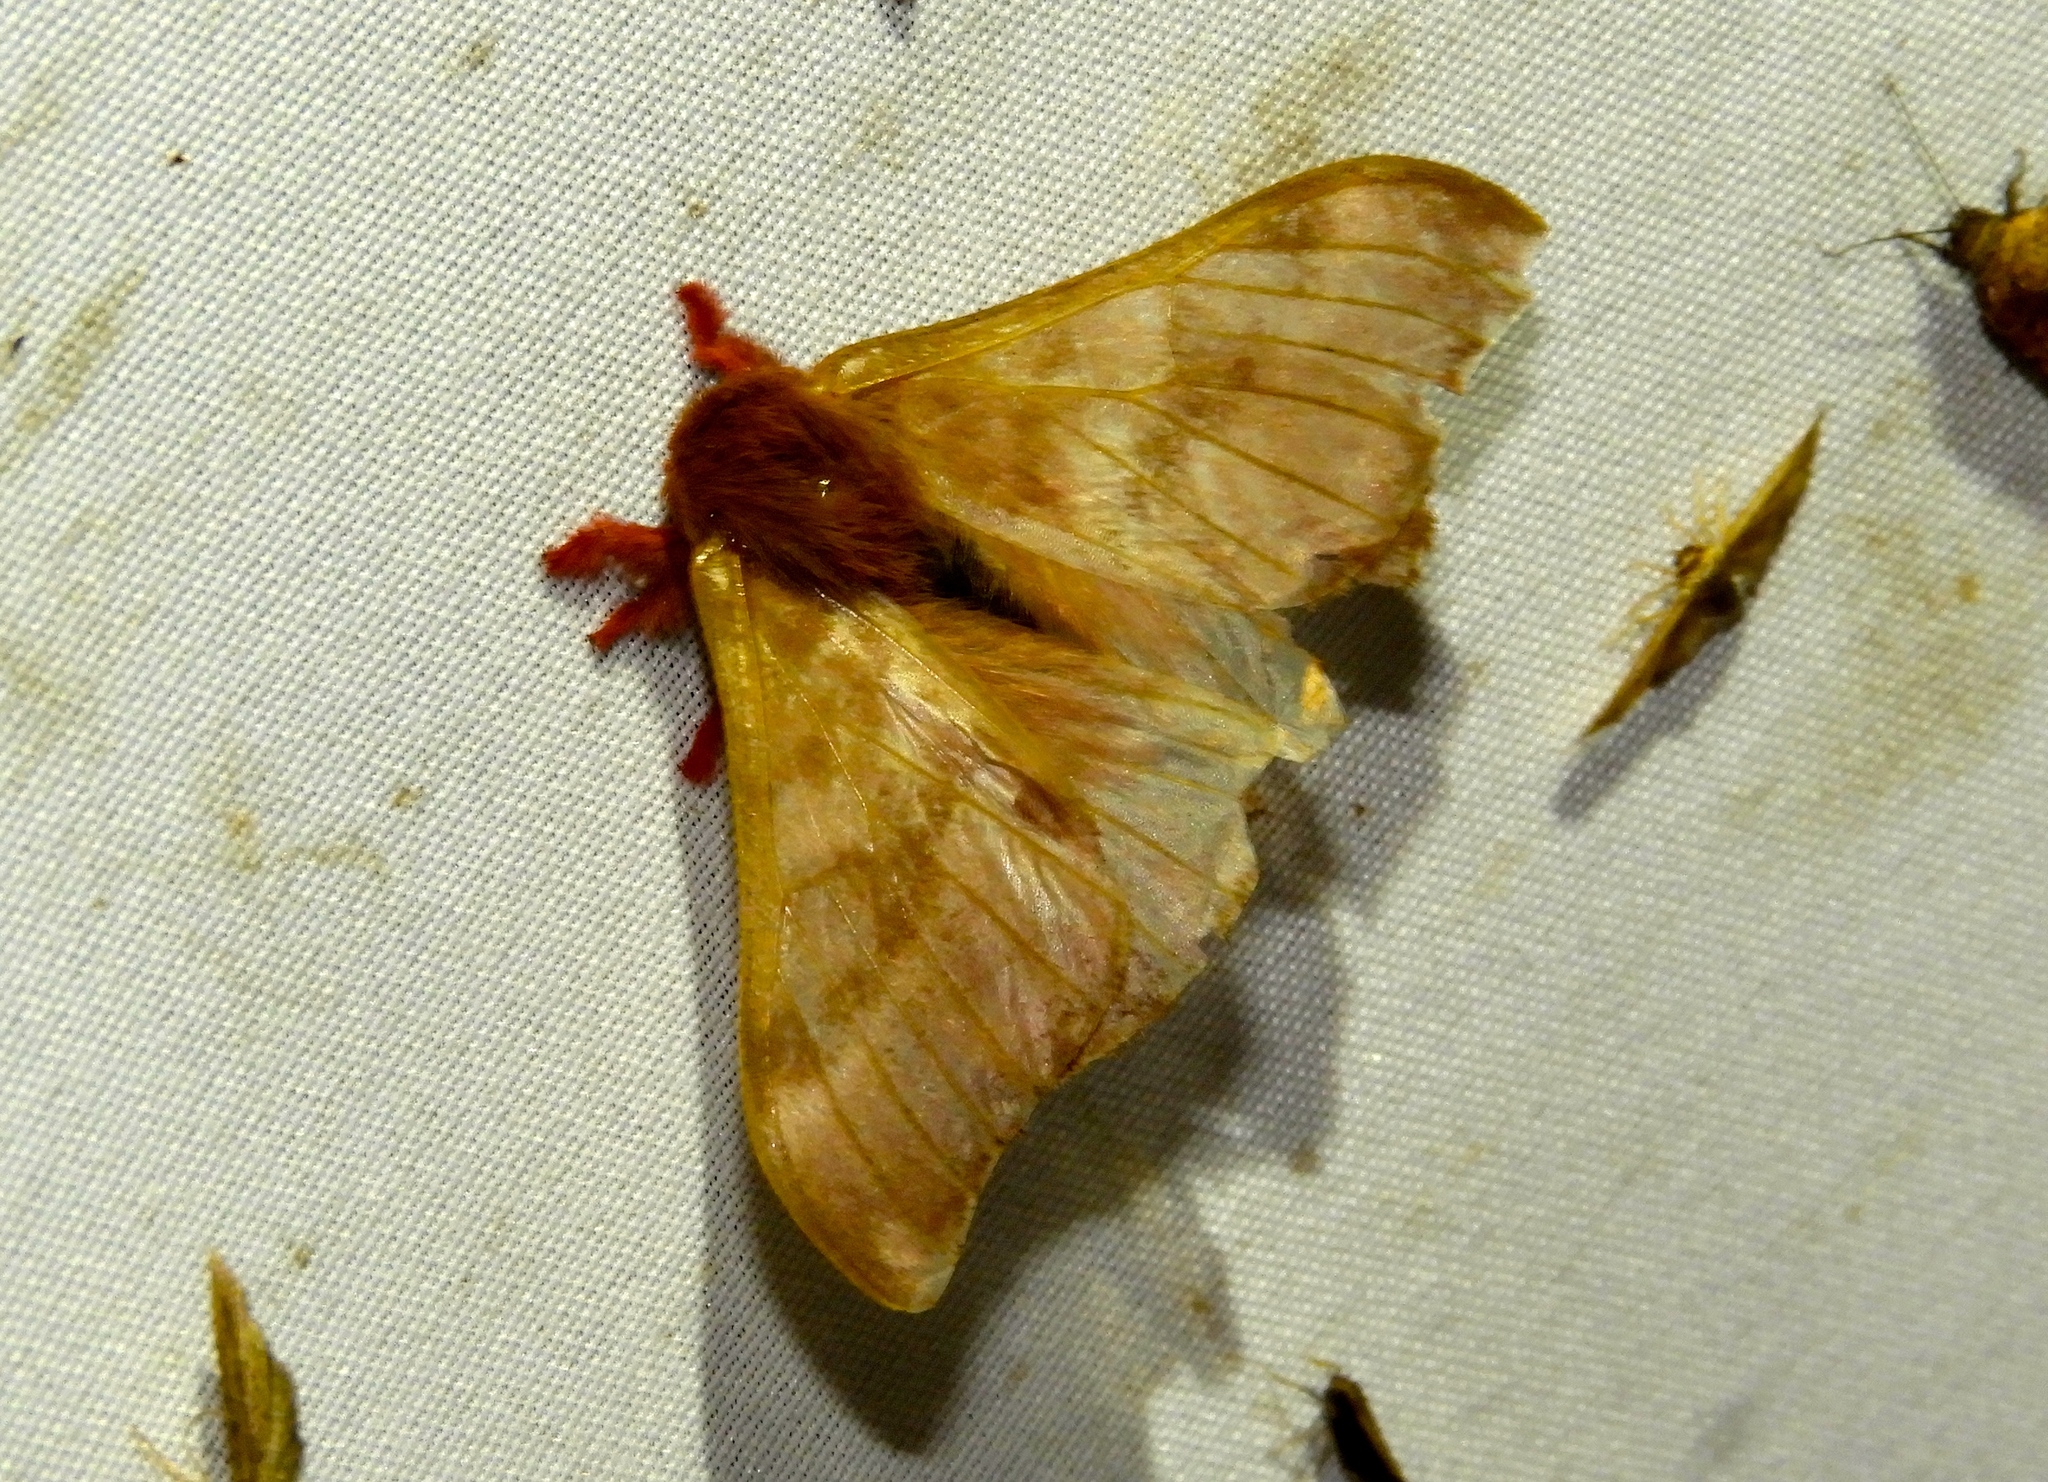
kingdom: Animalia
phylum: Arthropoda
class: Insecta
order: Lepidoptera
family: Saturniidae
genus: Hylesia
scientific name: Hylesia coinopus
